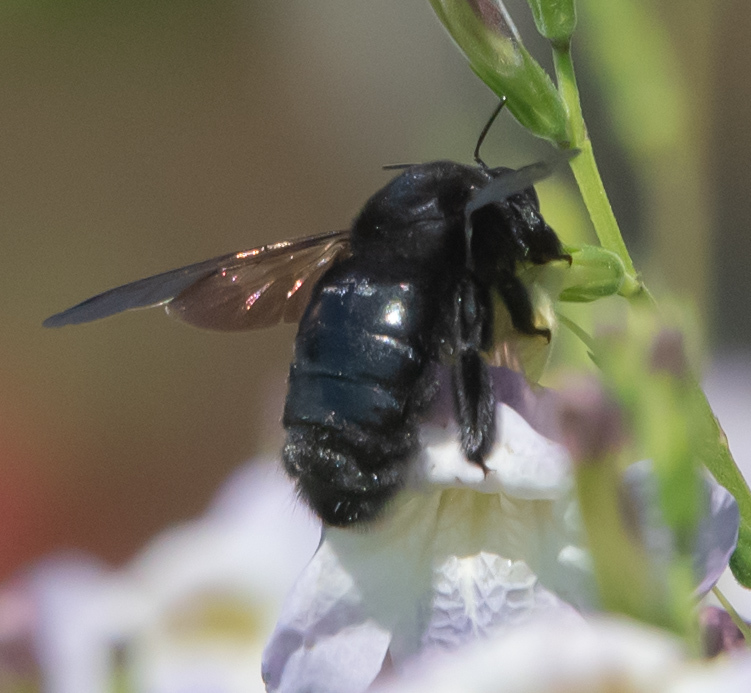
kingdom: Animalia
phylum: Arthropoda
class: Insecta
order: Hymenoptera
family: Apidae
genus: Xylocopa
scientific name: Xylocopa sonorina
